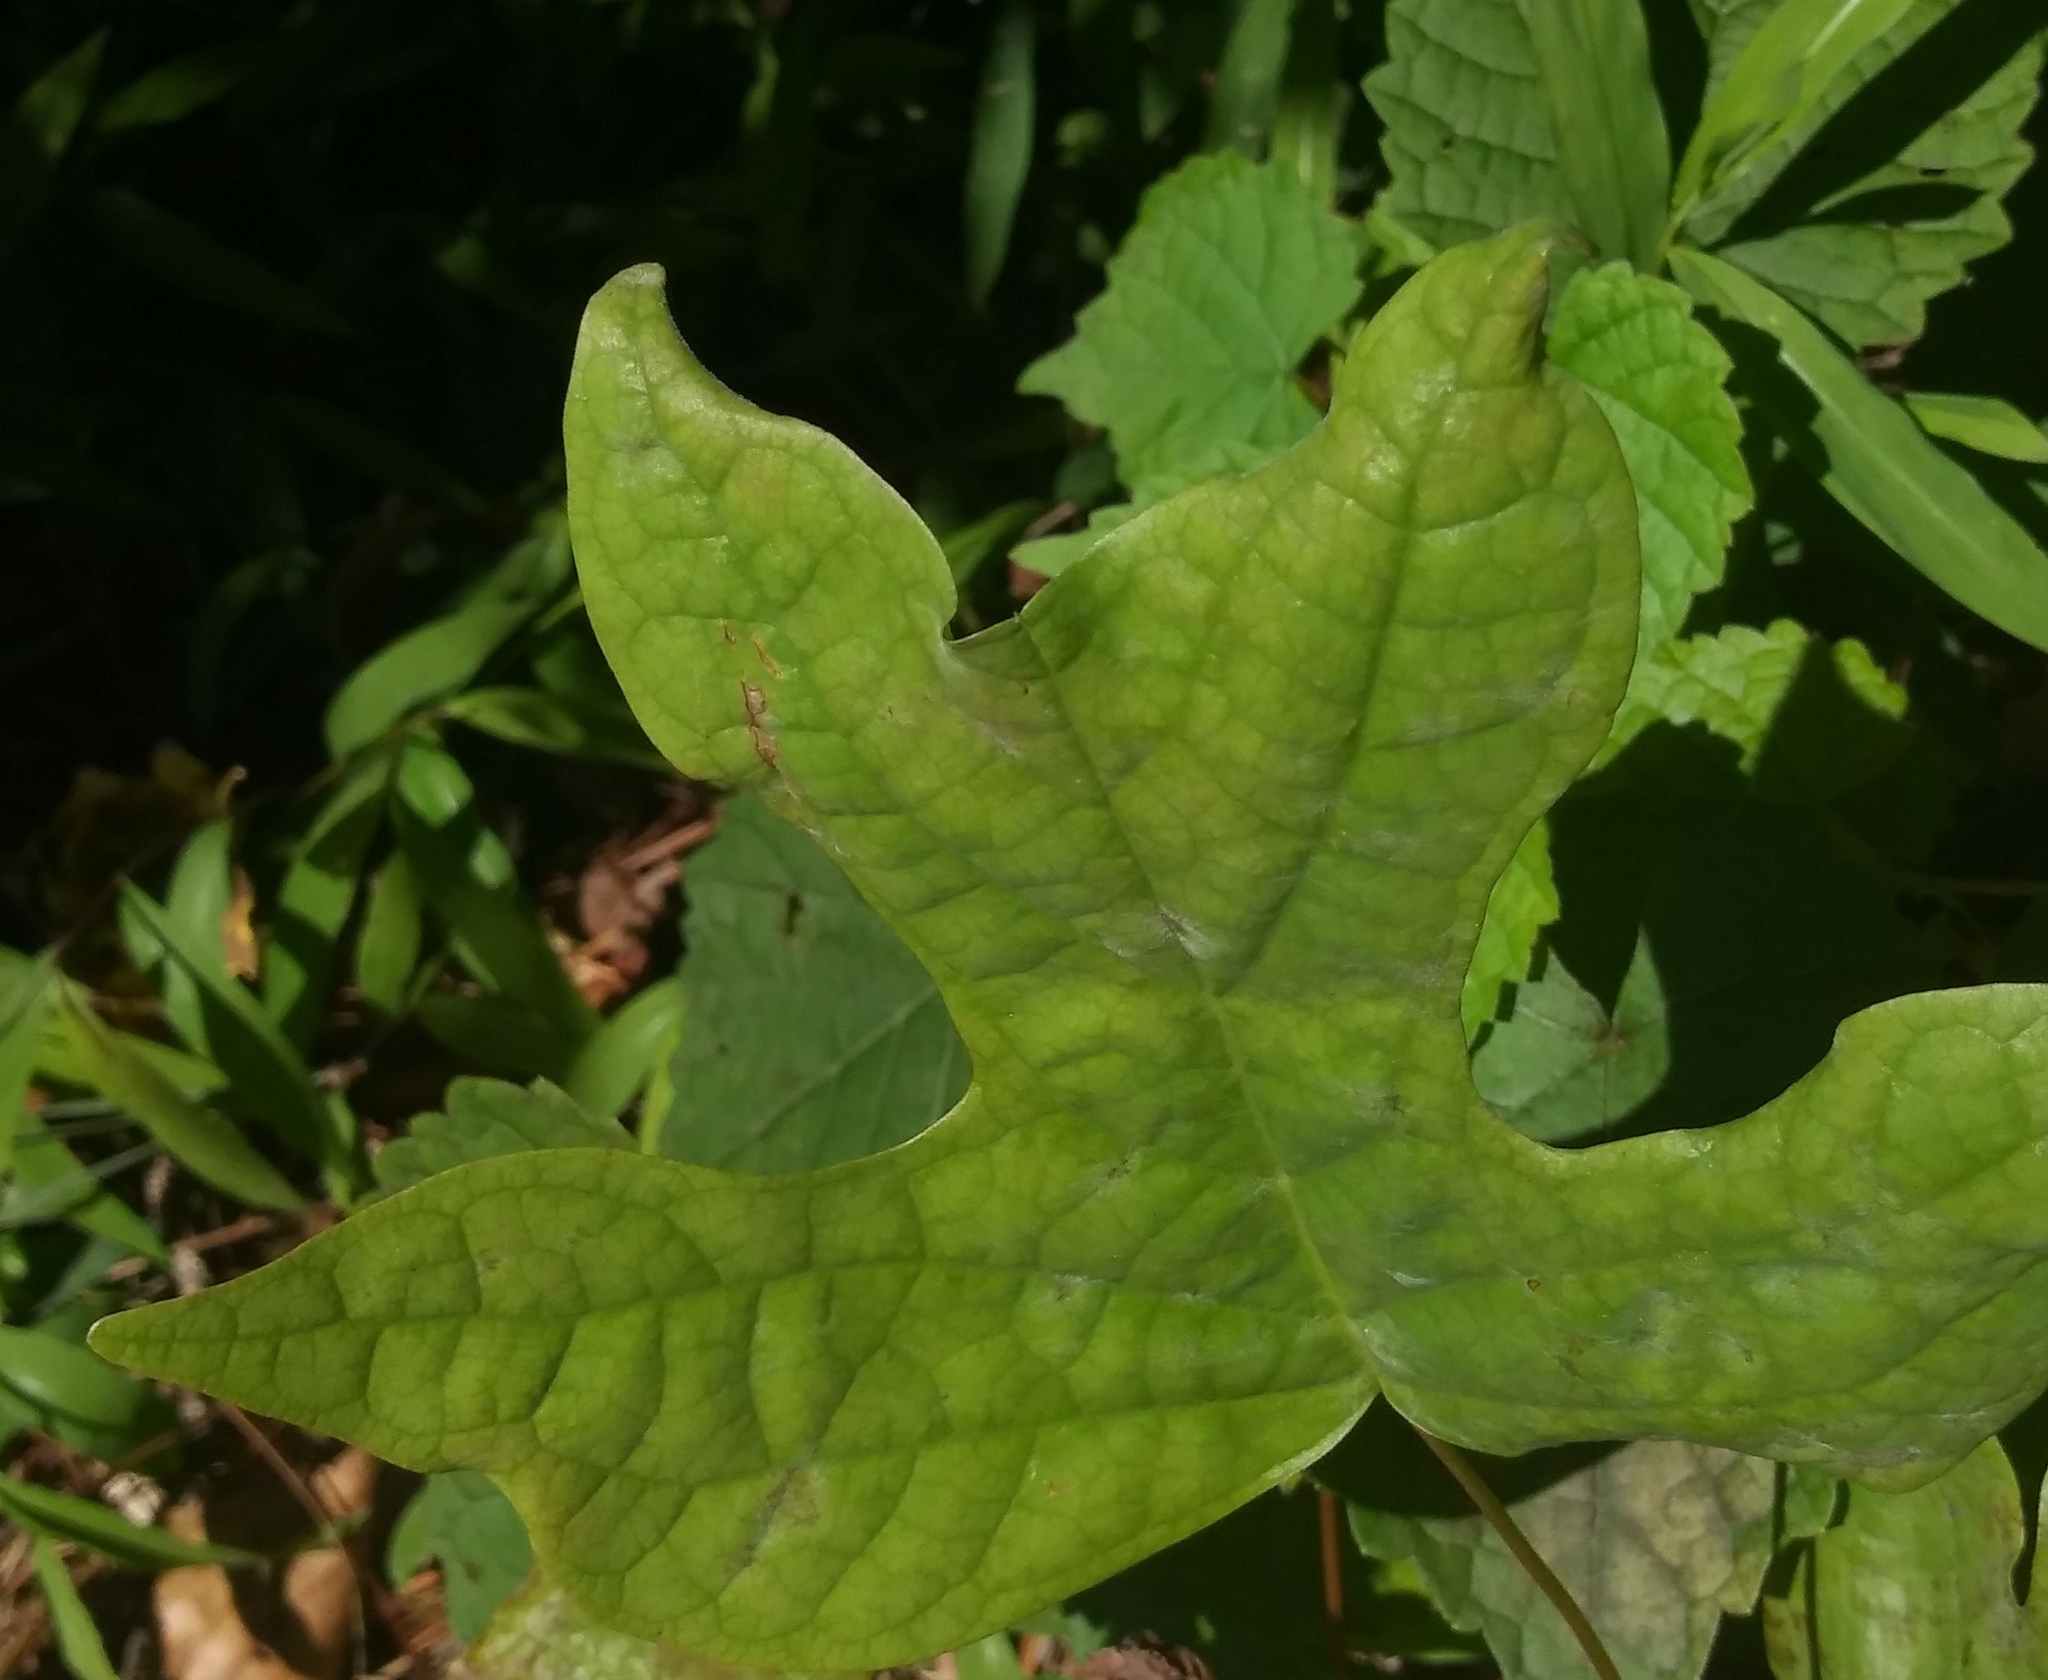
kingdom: Plantae
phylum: Tracheophyta
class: Magnoliopsida
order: Magnoliales
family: Magnoliaceae
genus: Liriodendron
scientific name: Liriodendron tulipifera
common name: Tulip tree
